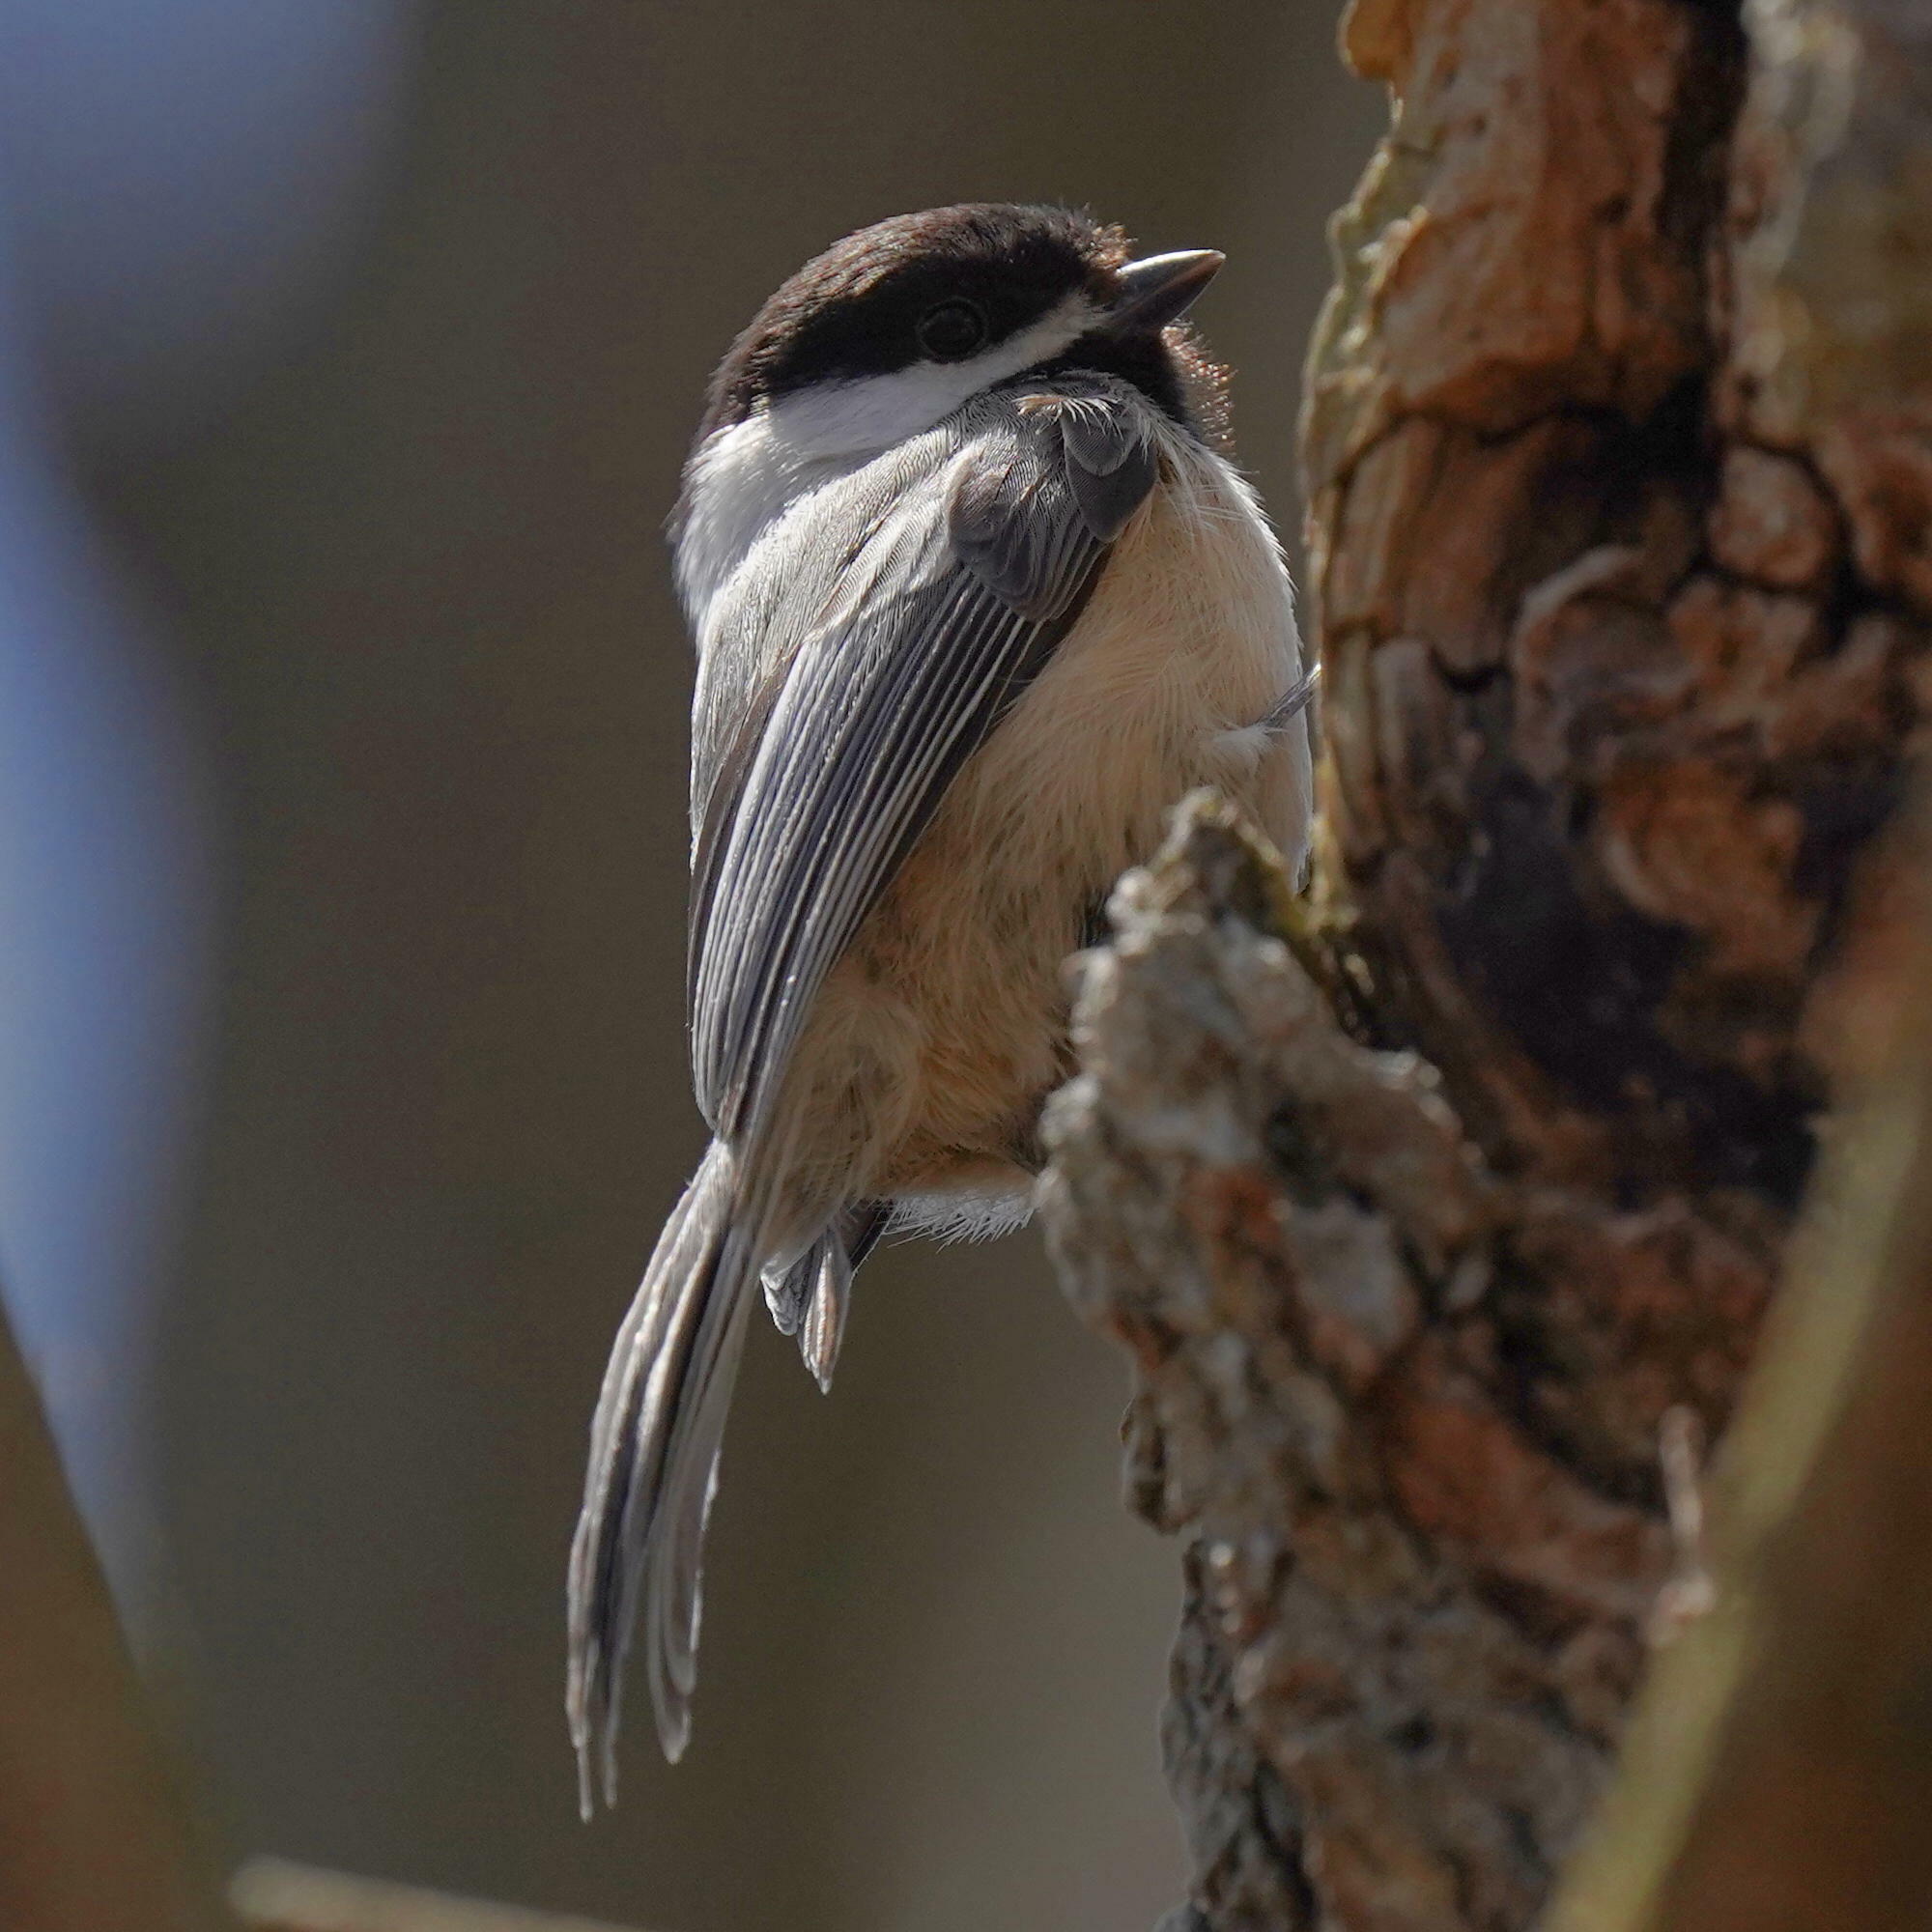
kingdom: Animalia
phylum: Chordata
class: Aves
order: Passeriformes
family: Paridae
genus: Poecile
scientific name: Poecile atricapillus
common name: Black-capped chickadee
